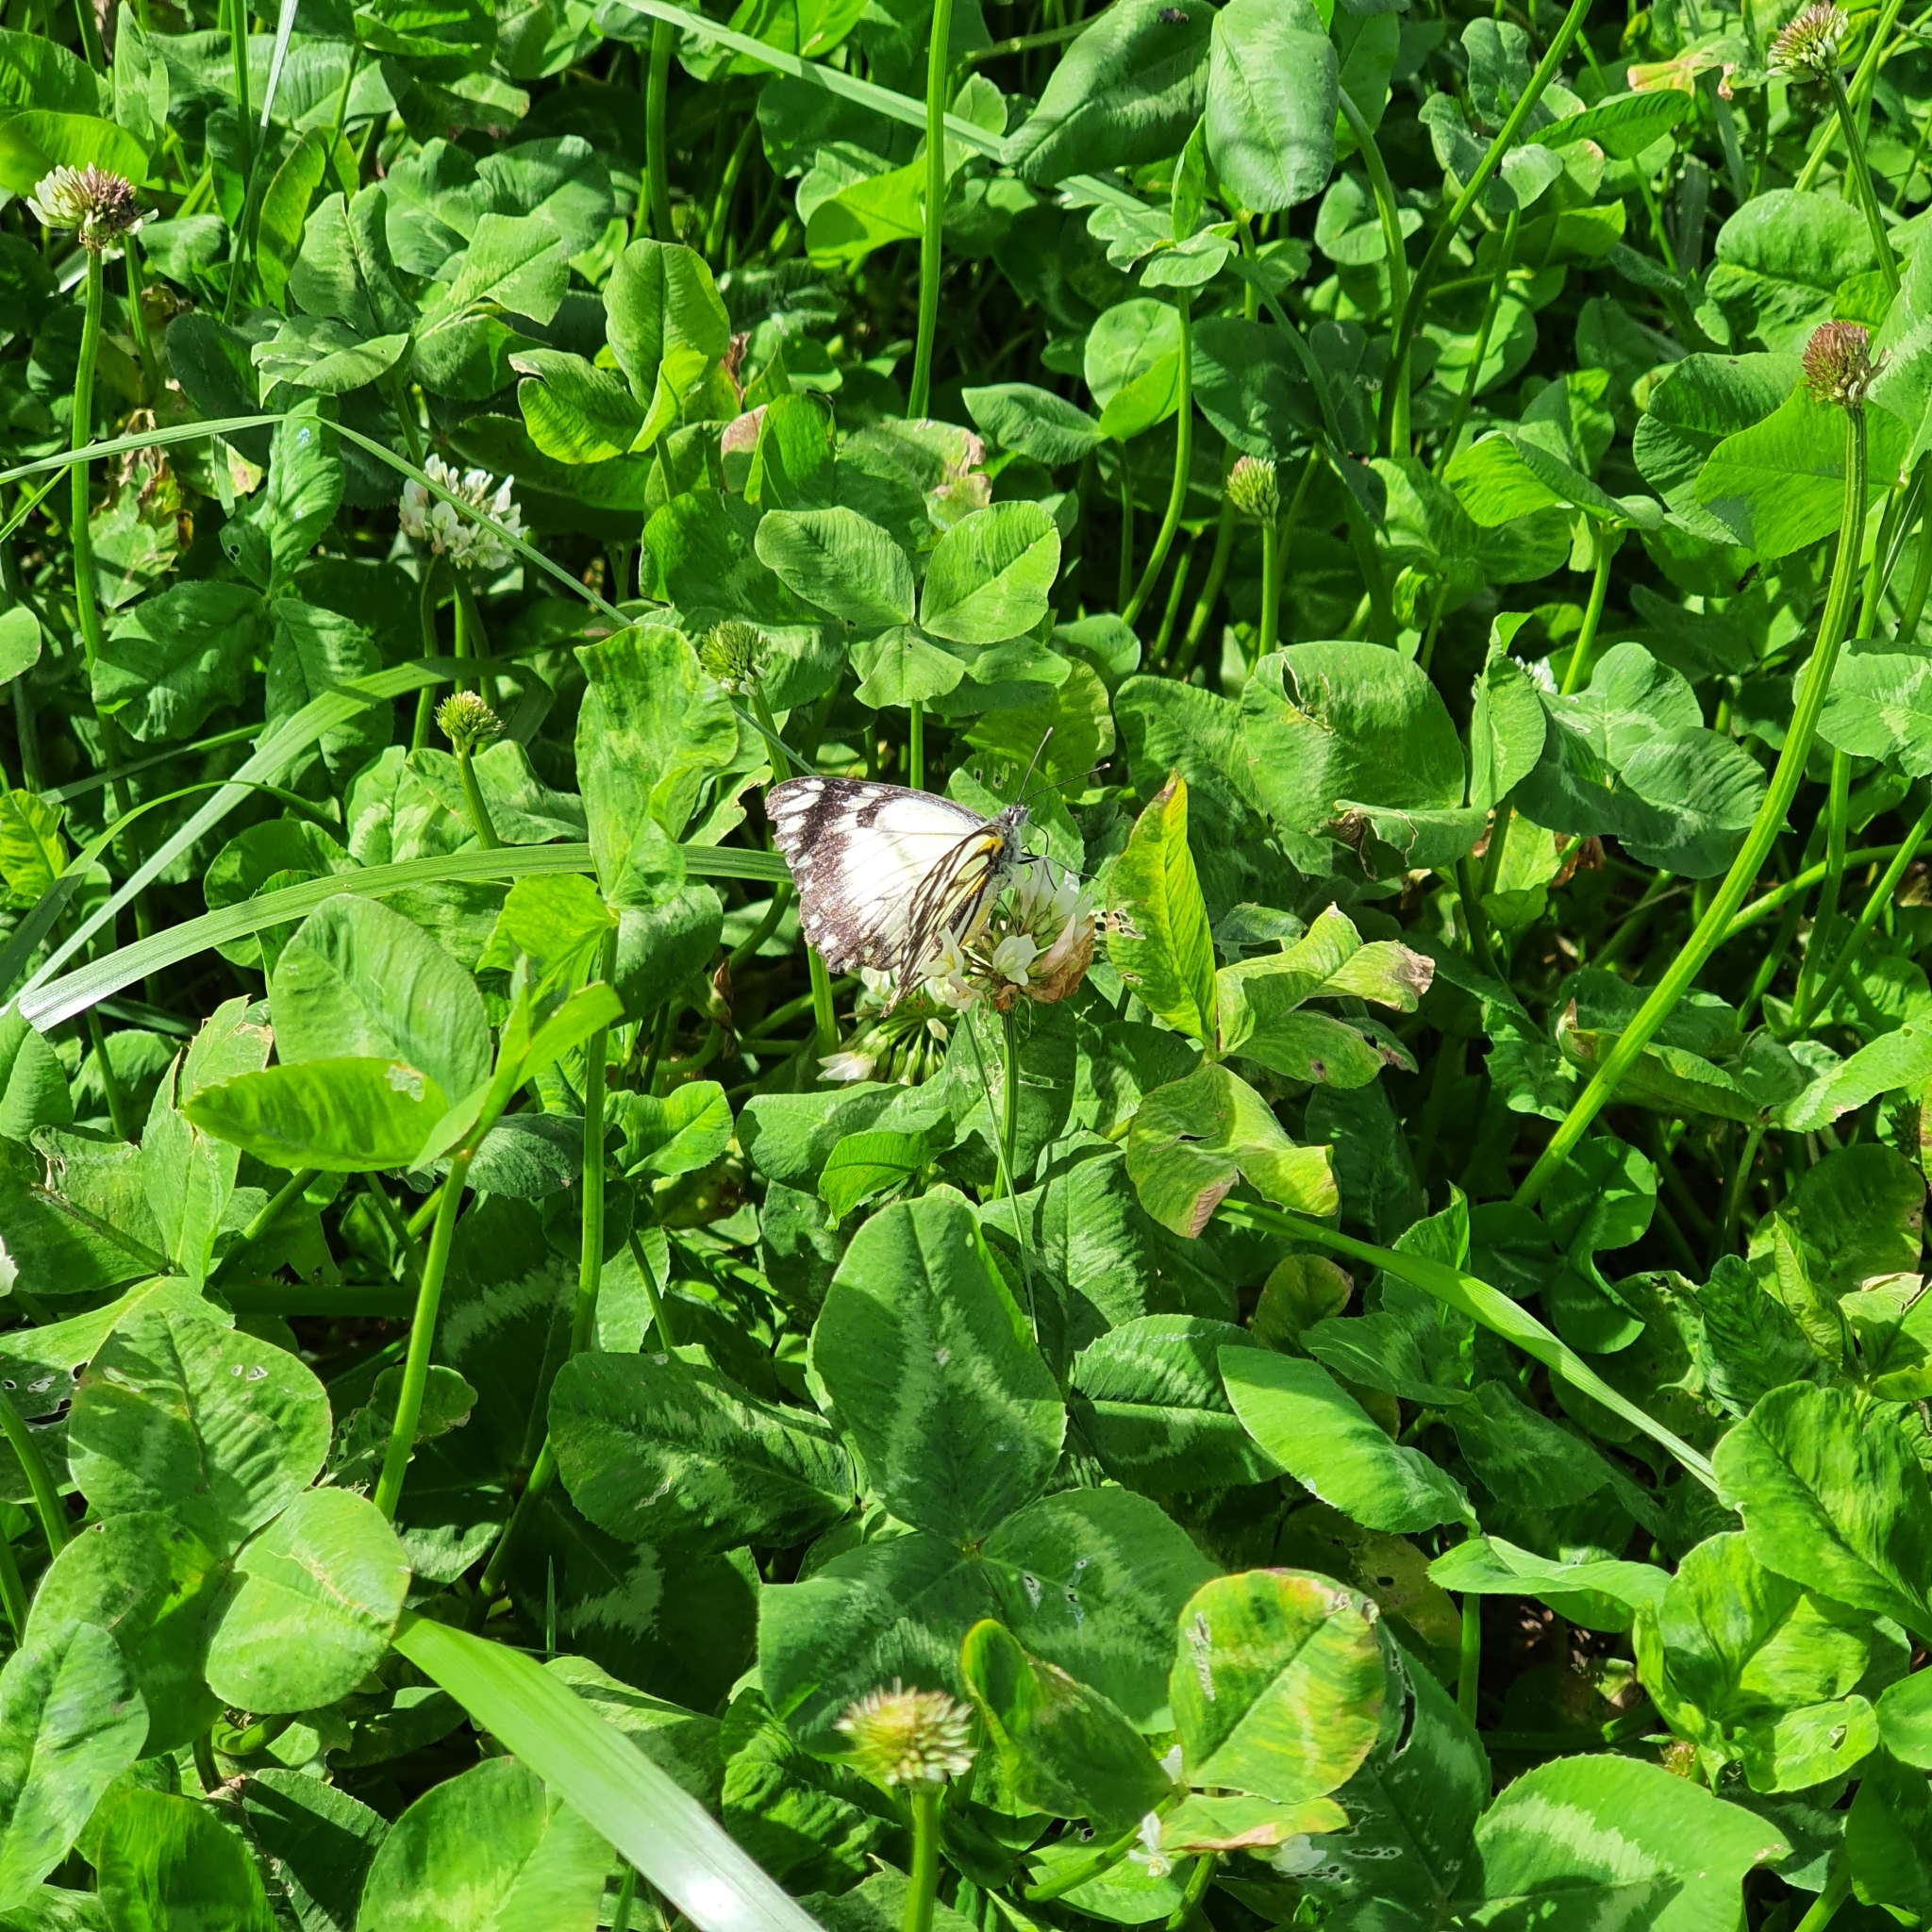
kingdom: Animalia
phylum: Arthropoda
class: Insecta
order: Lepidoptera
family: Pieridae
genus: Belenois
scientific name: Belenois java
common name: Caper white
